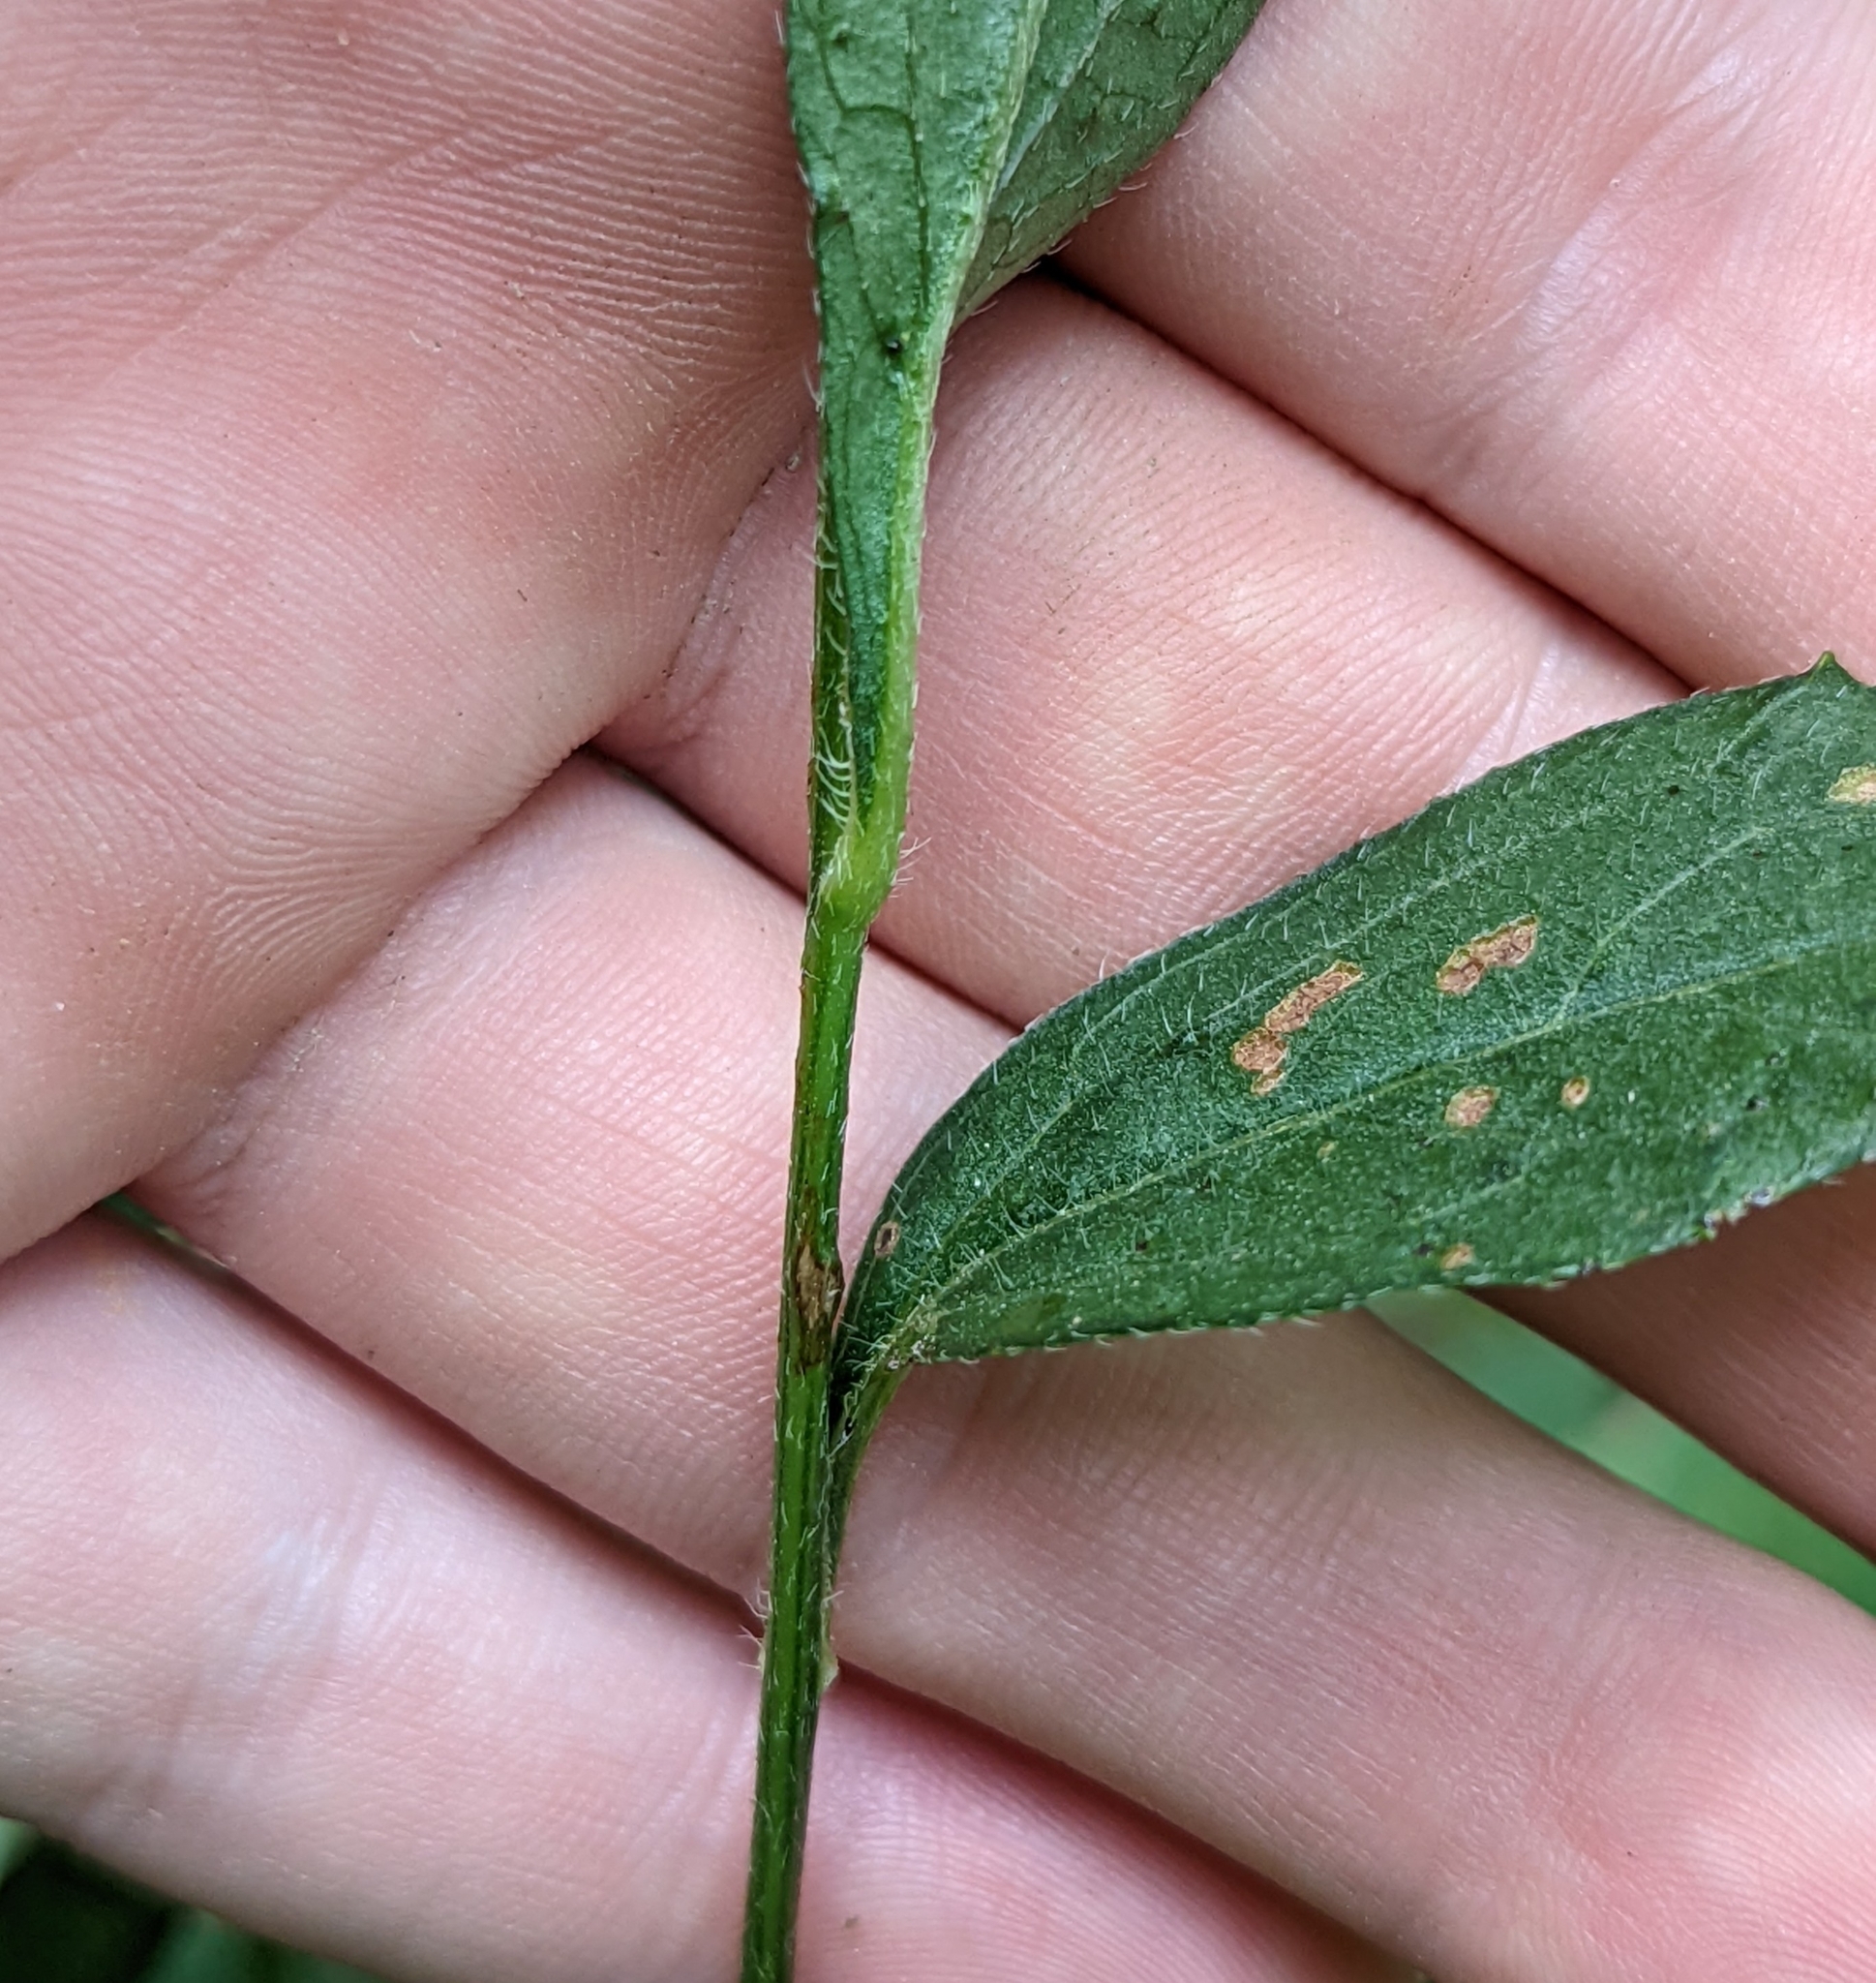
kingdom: Plantae
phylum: Tracheophyta
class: Magnoliopsida
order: Asterales
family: Asteraceae
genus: Rudbeckia
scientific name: Rudbeckia triloba
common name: Thin-leaved coneflower
